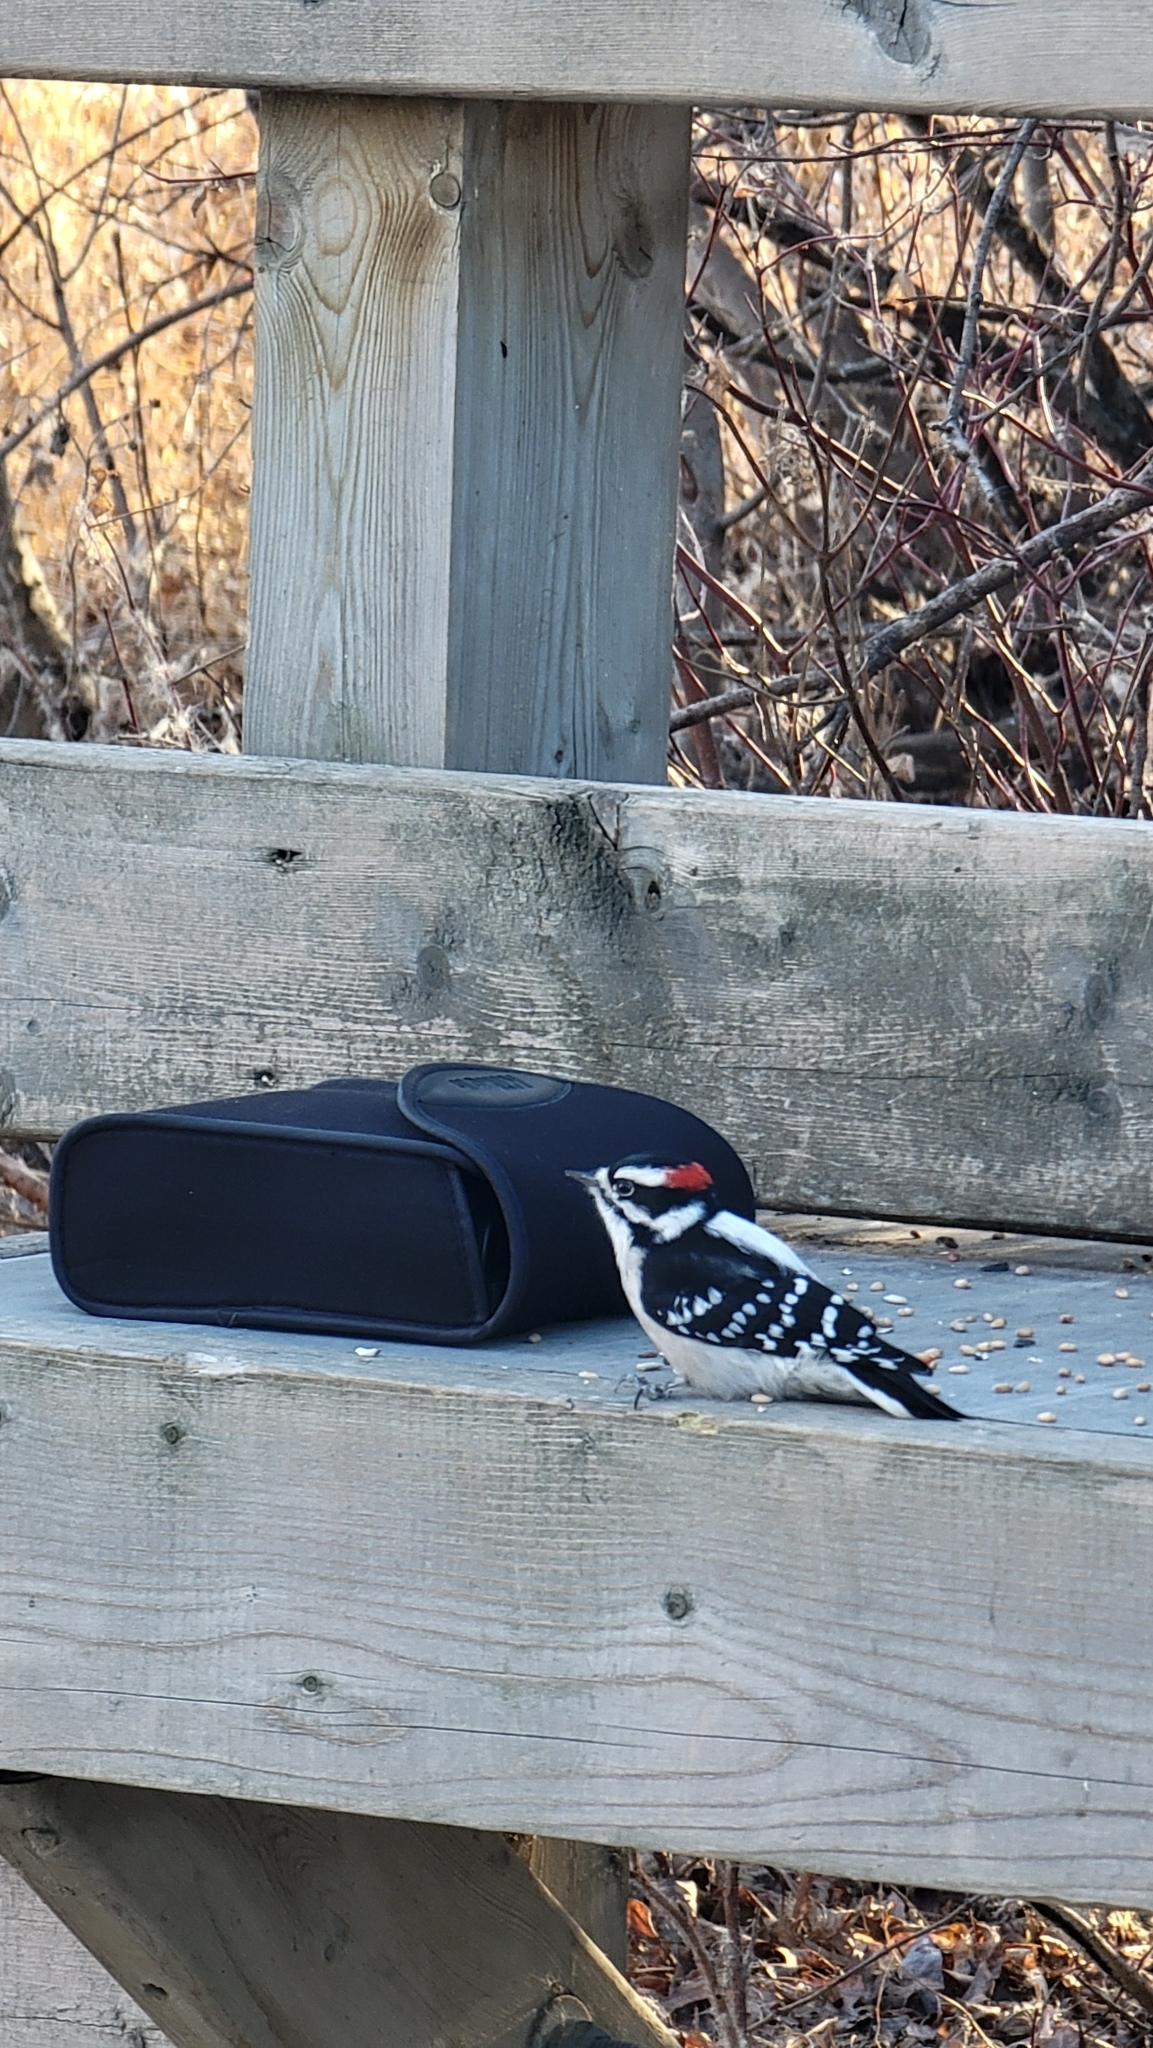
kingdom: Animalia
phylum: Chordata
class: Aves
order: Piciformes
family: Picidae
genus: Dryobates
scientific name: Dryobates pubescens
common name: Downy woodpecker
